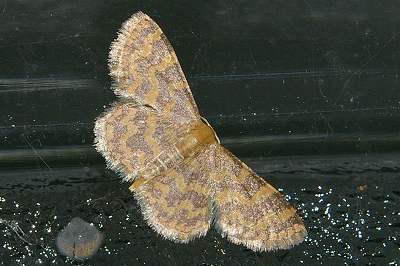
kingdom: Animalia
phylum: Arthropoda
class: Insecta
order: Lepidoptera
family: Geometridae
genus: Idaea
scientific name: Idaea auricruda
